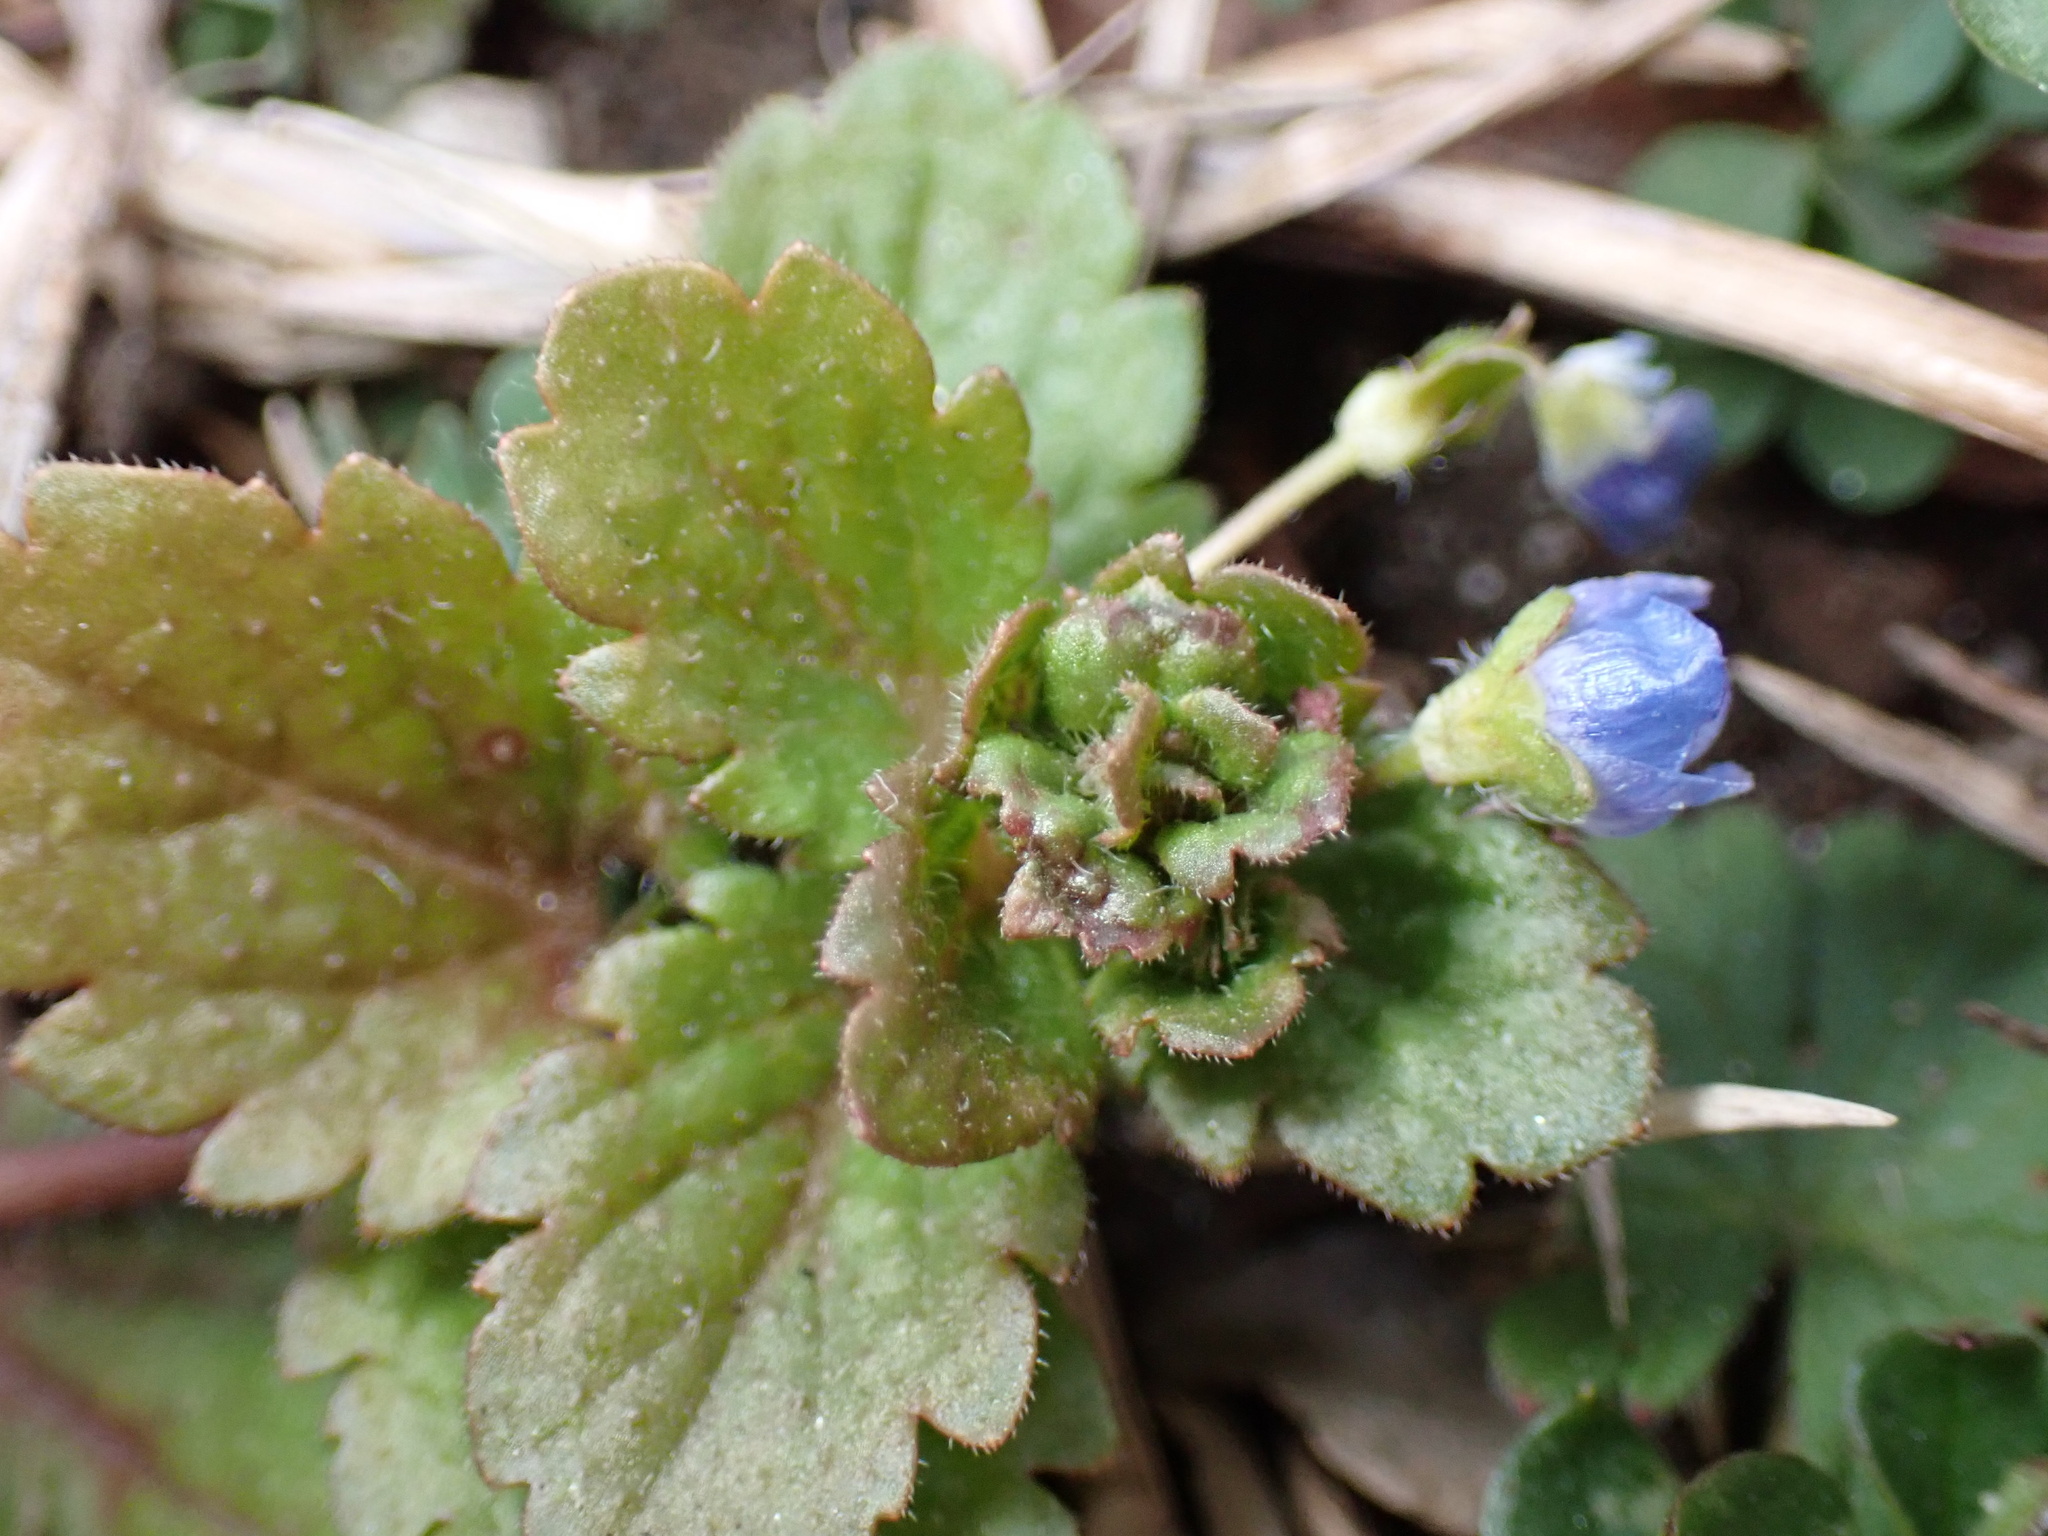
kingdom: Plantae
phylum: Tracheophyta
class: Magnoliopsida
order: Lamiales
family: Plantaginaceae
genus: Veronica
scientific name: Veronica persica
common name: Common field-speedwell
